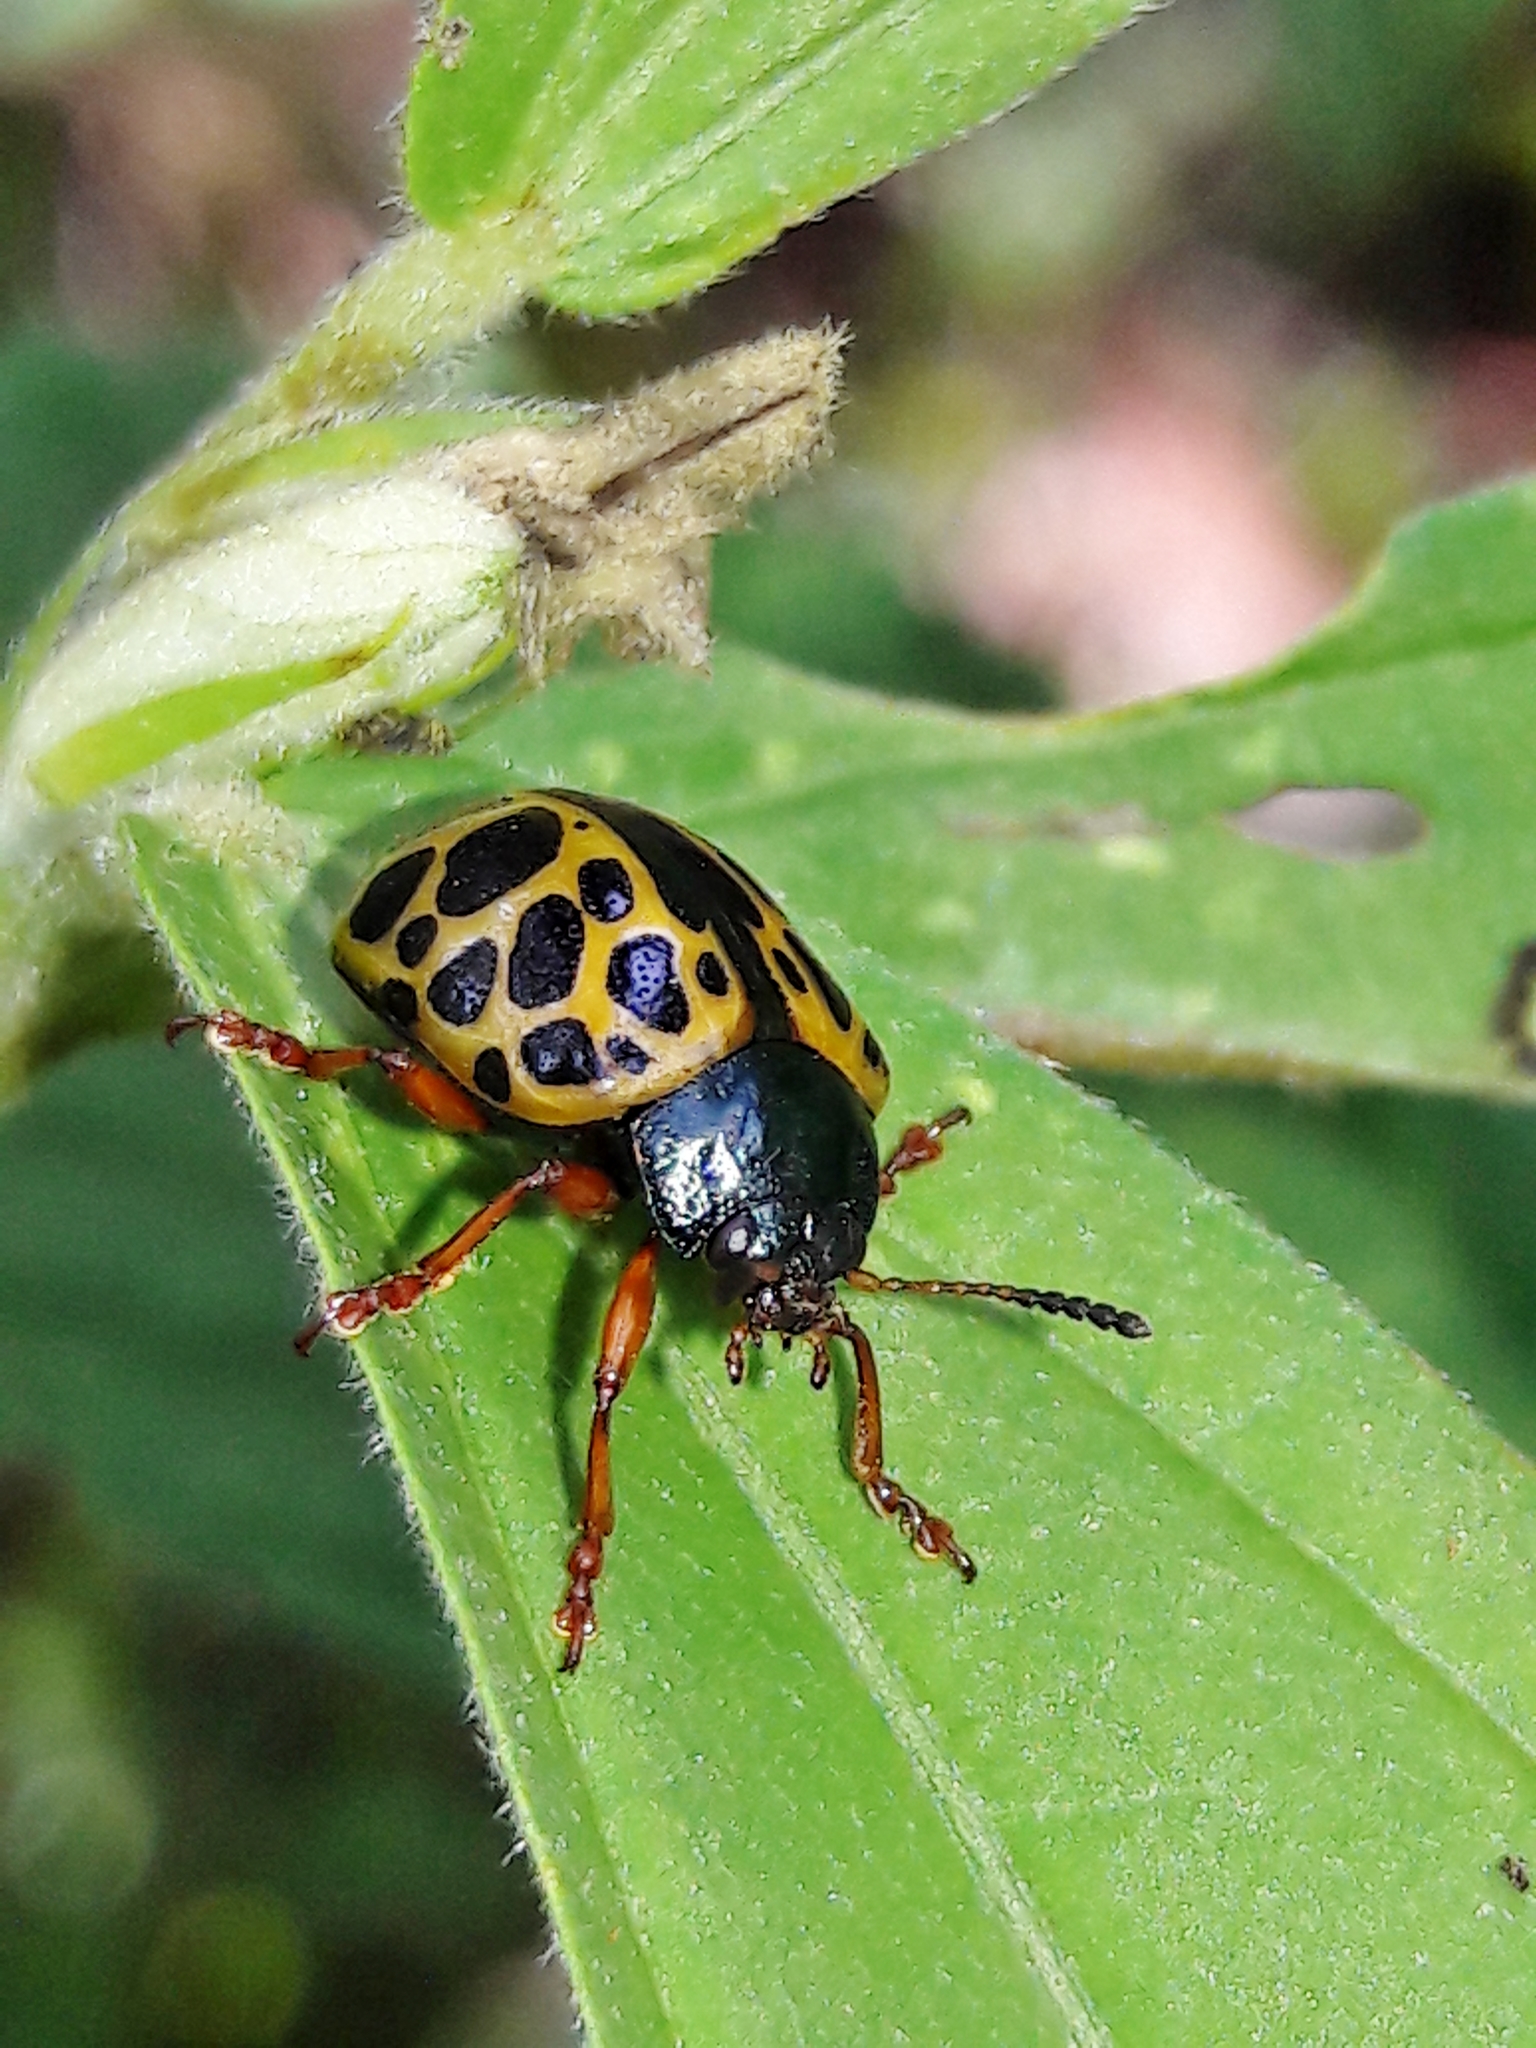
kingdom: Animalia
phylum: Arthropoda
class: Insecta
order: Coleoptera
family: Chrysomelidae
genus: Calligrapha
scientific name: Calligrapha polyspila
